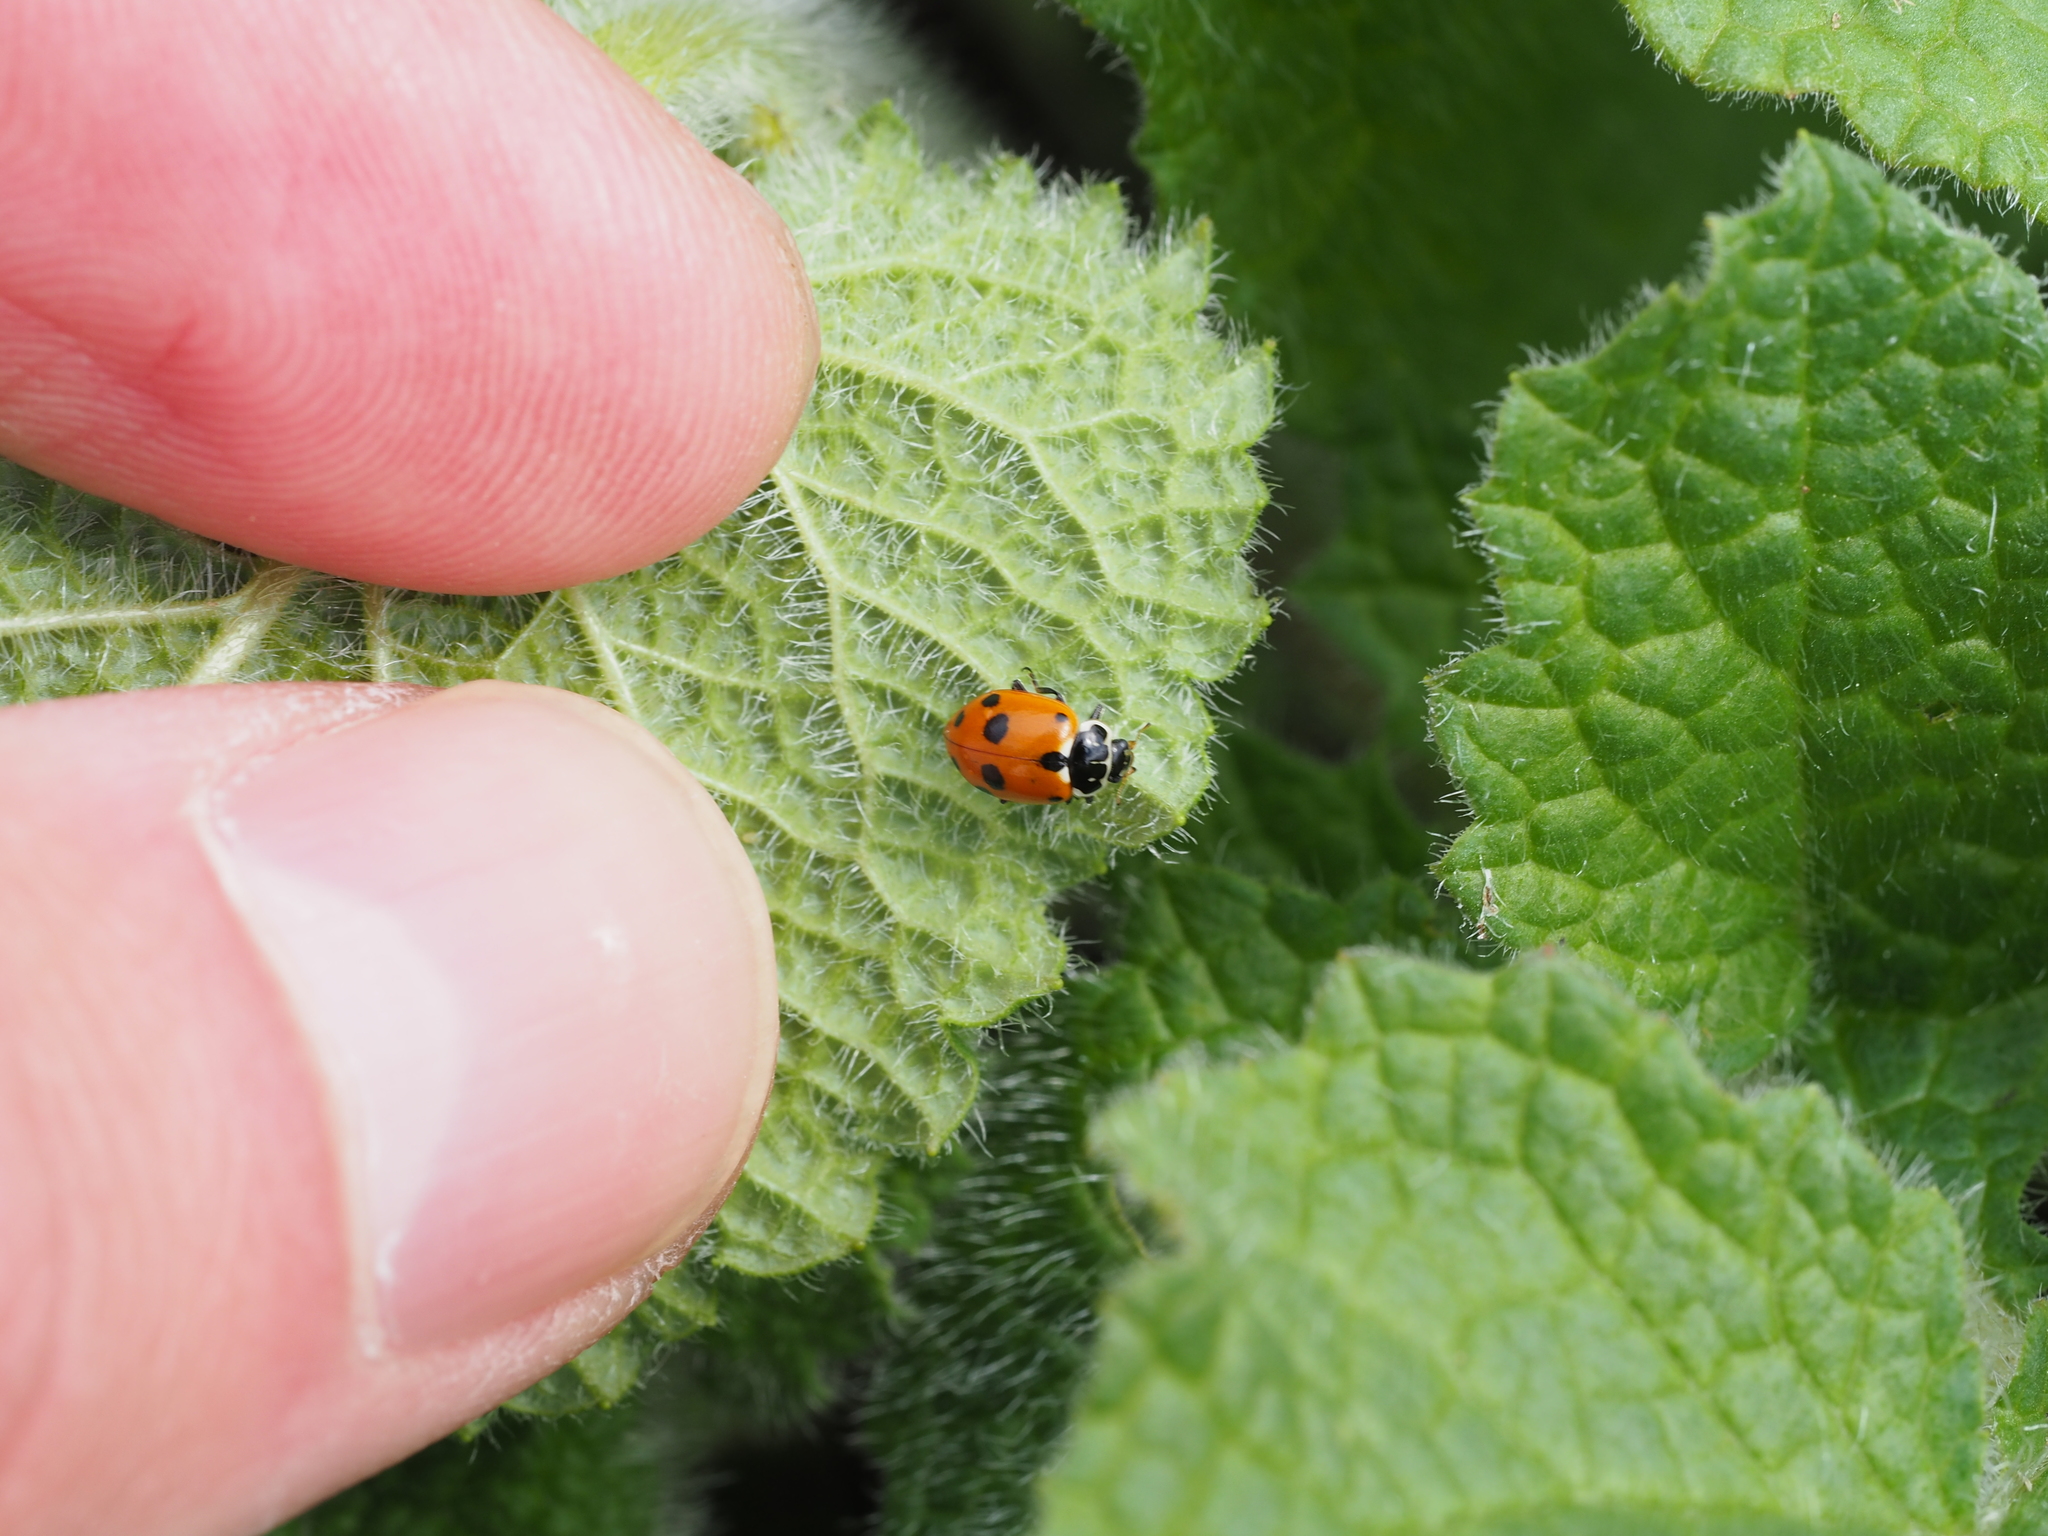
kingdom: Animalia
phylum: Arthropoda
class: Insecta
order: Coleoptera
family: Coccinellidae
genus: Hippodamia
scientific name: Hippodamia variegata
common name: Ladybird beetle
